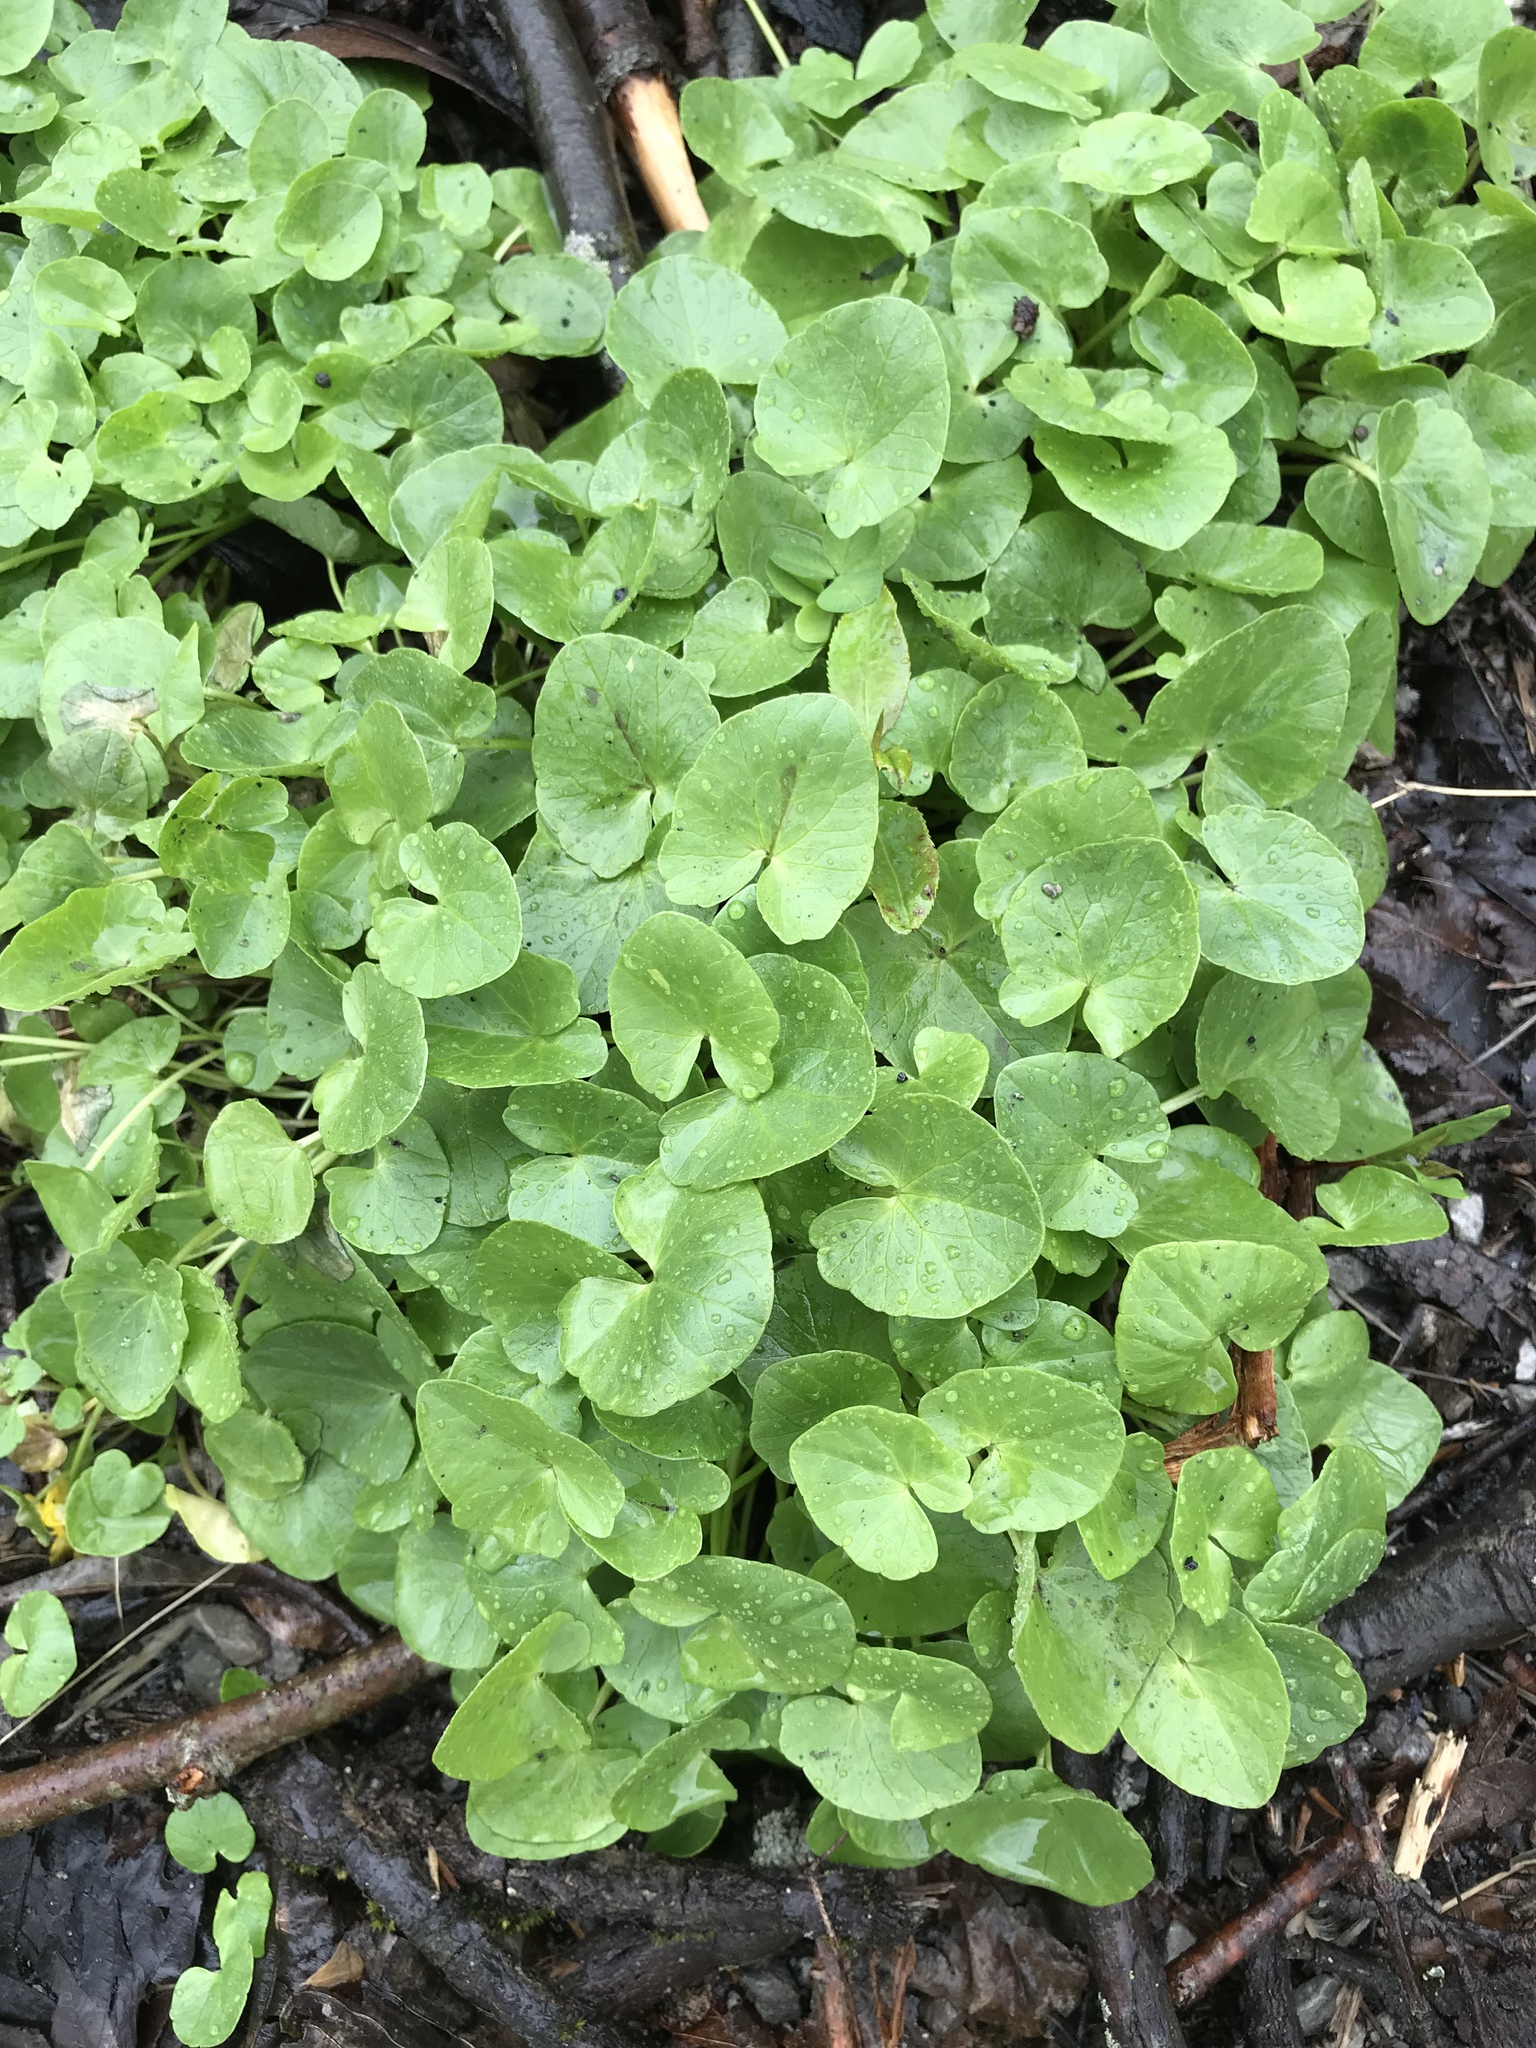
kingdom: Plantae
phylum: Tracheophyta
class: Magnoliopsida
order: Ranunculales
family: Ranunculaceae
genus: Ficaria
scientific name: Ficaria verna
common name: Lesser celandine
